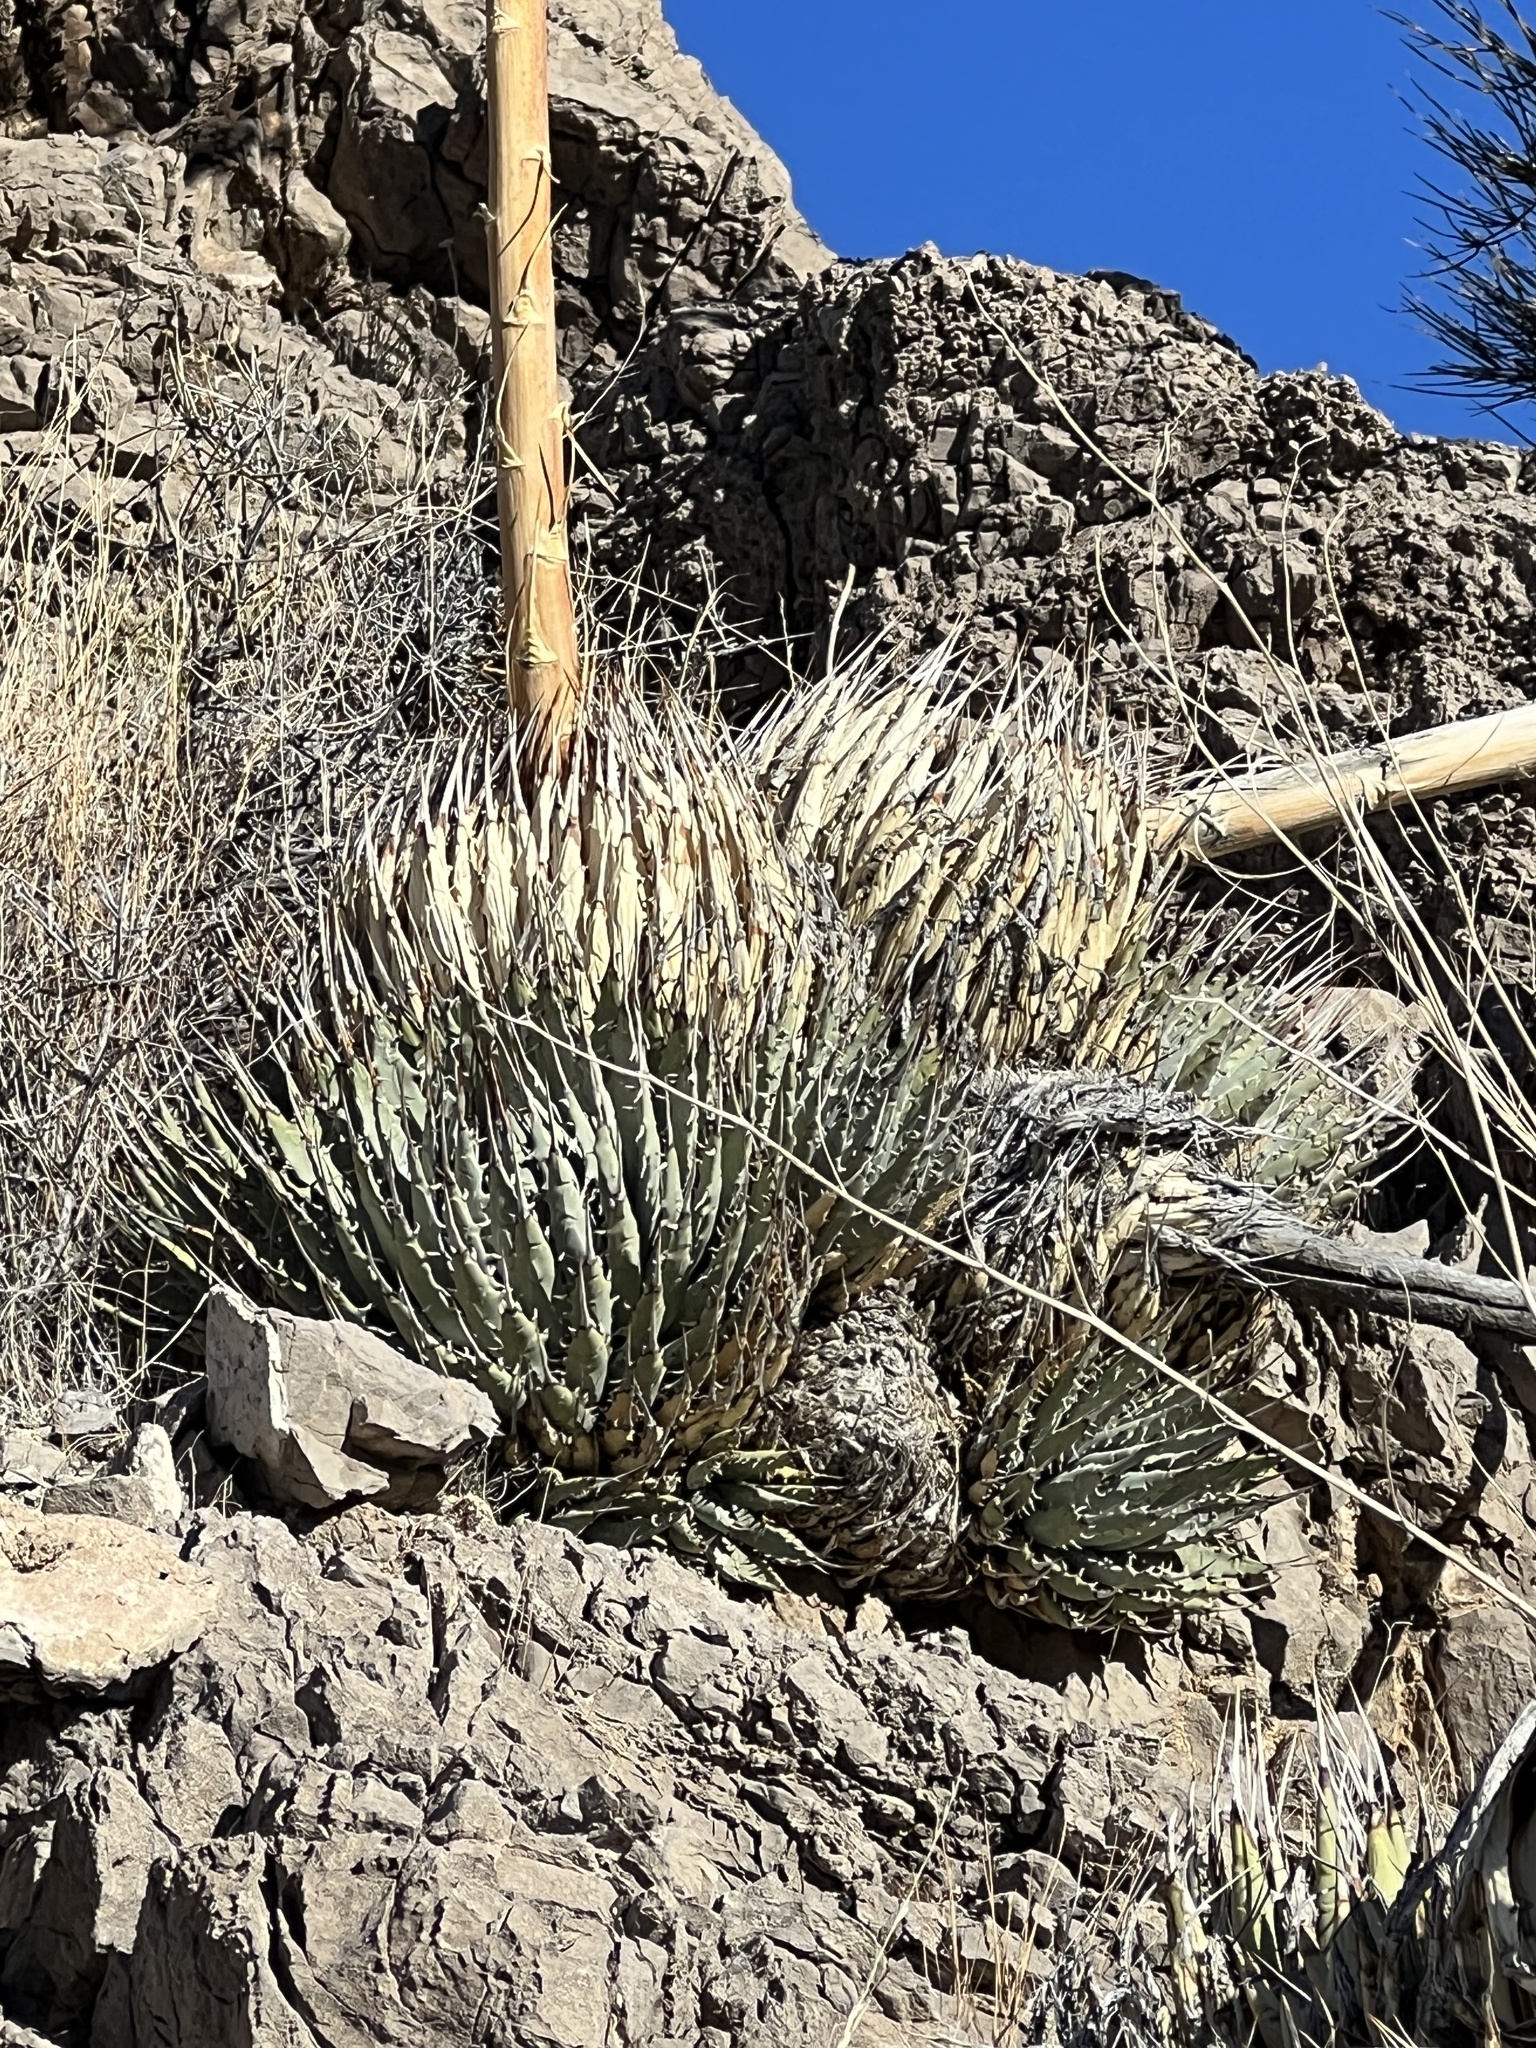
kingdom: Plantae
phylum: Tracheophyta
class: Liliopsida
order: Asparagales
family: Asparagaceae
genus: Agave
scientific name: Agave utahensis
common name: Utah agave
